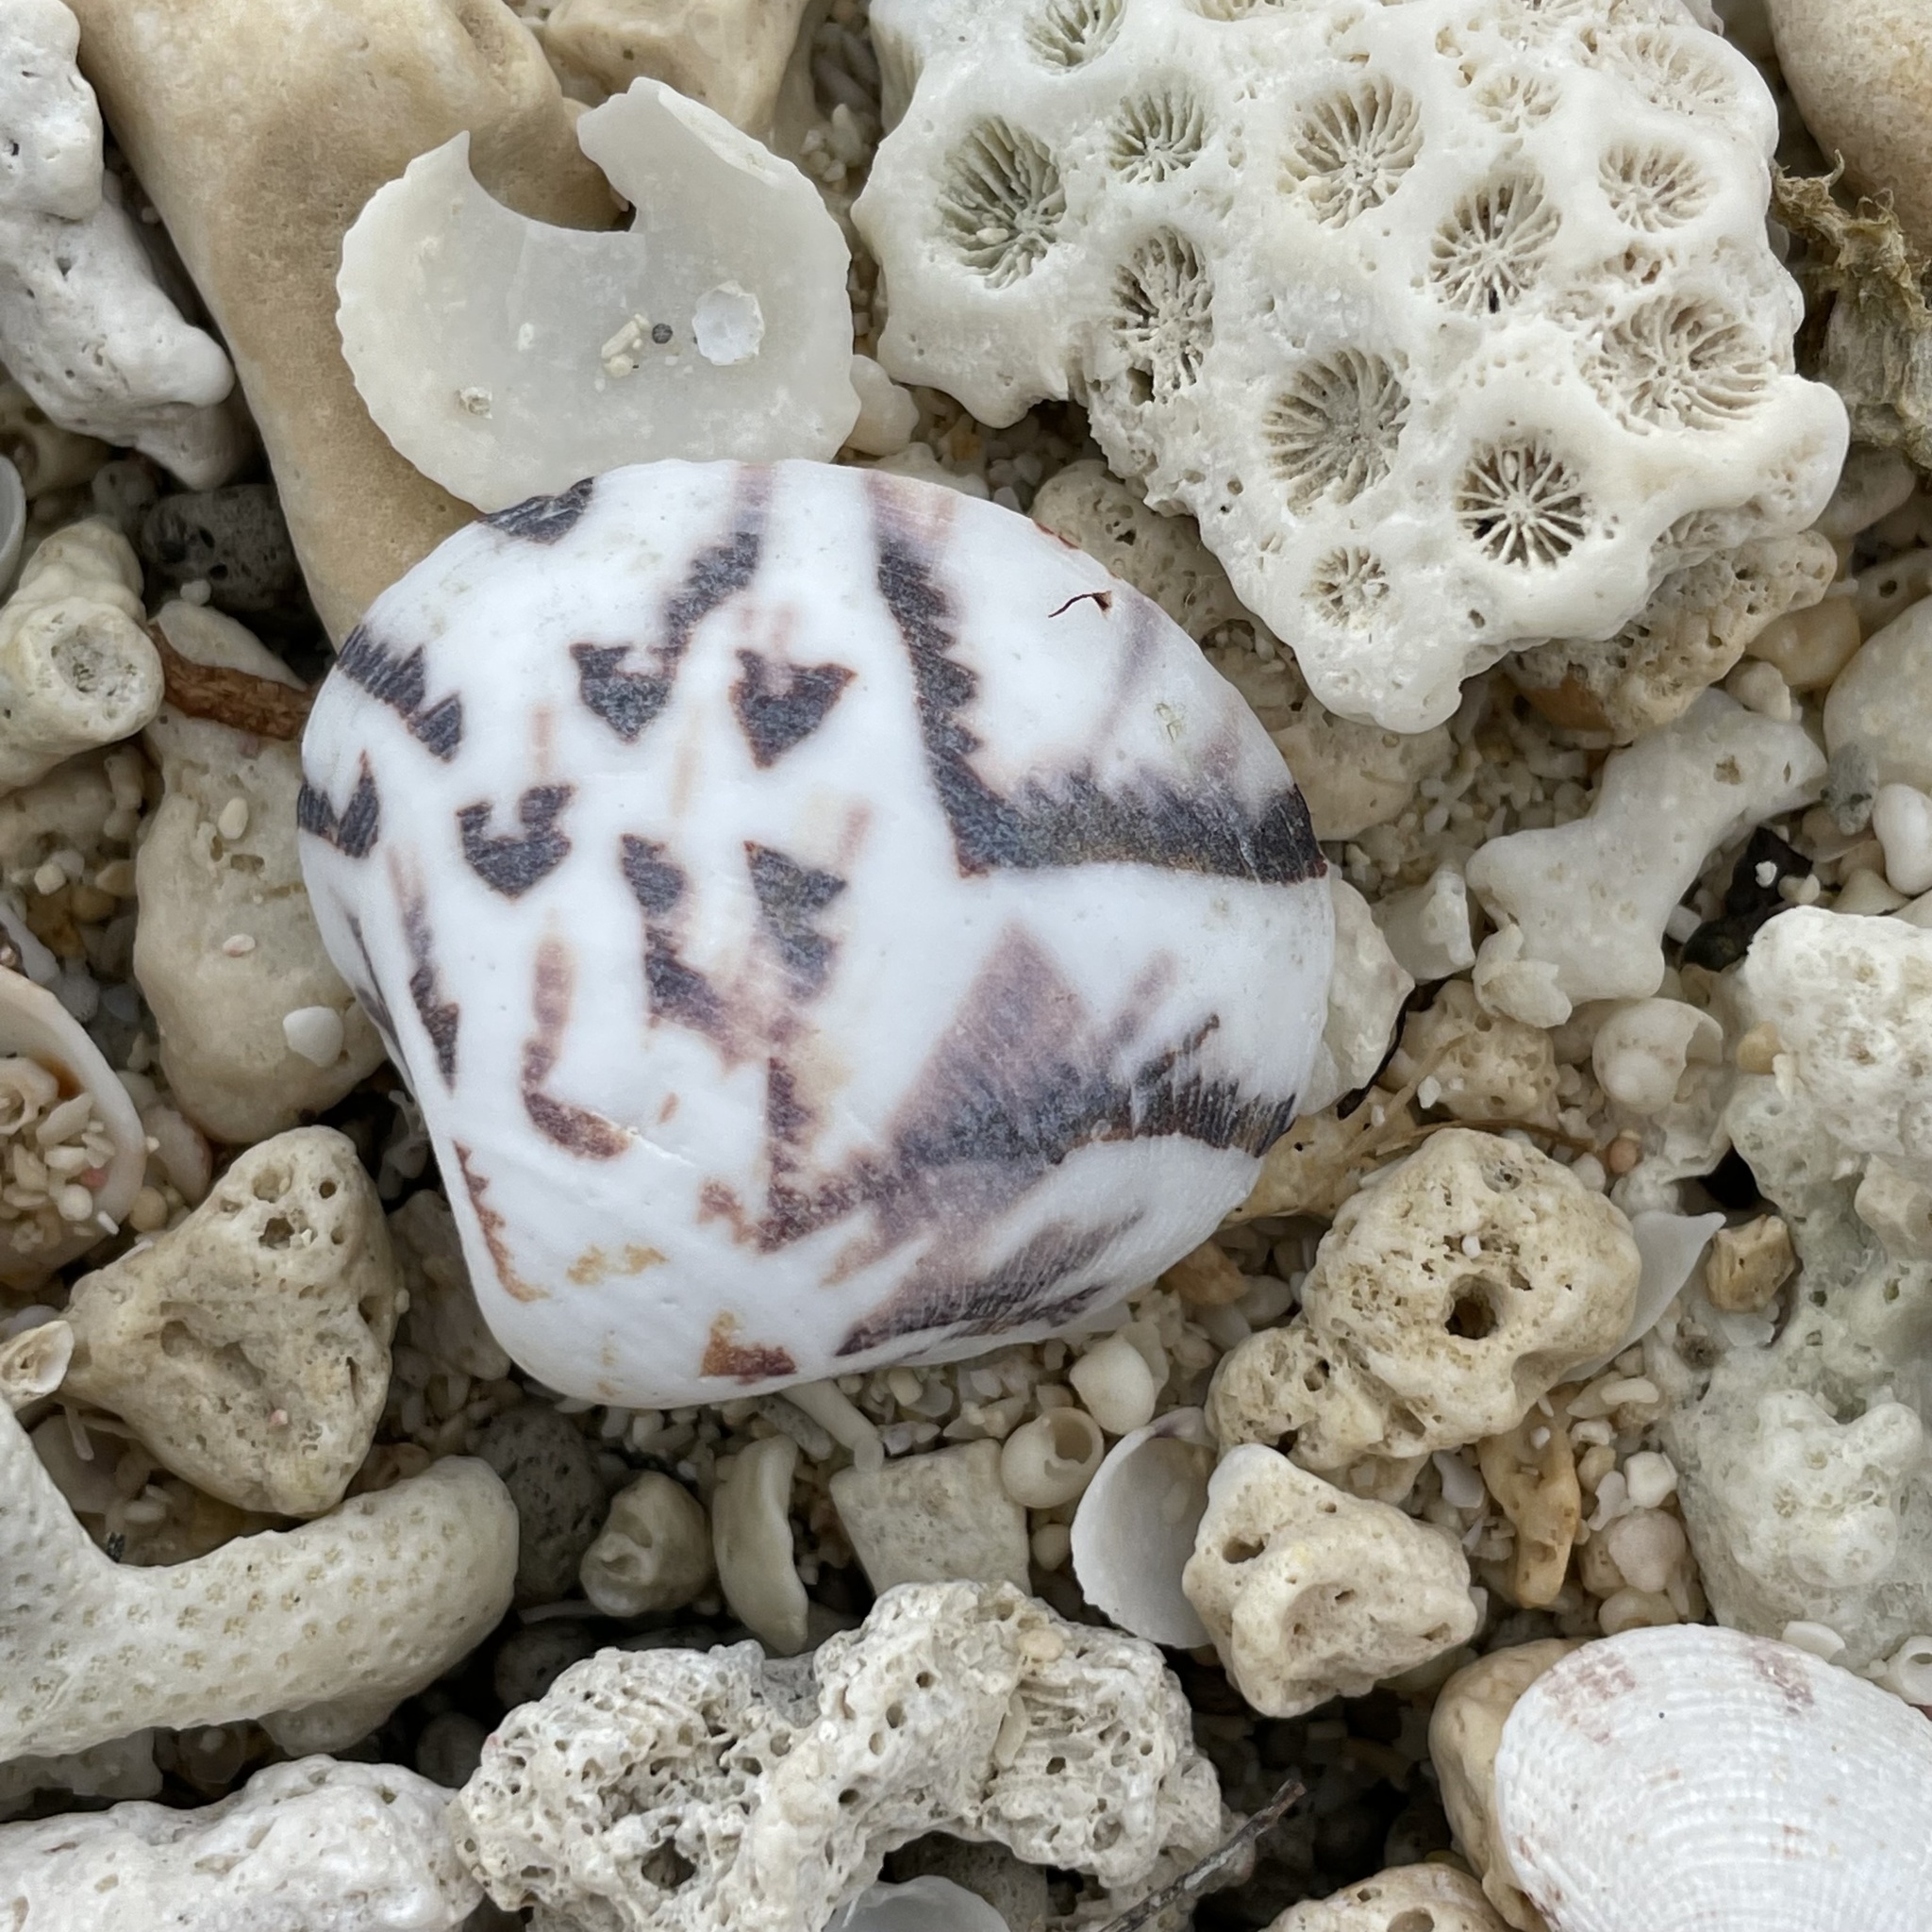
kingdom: Animalia
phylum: Mollusca
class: Bivalvia
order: Venerida
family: Veneridae
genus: Lioconcha
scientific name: Lioconcha castrensis
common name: Camp pitar-venus
